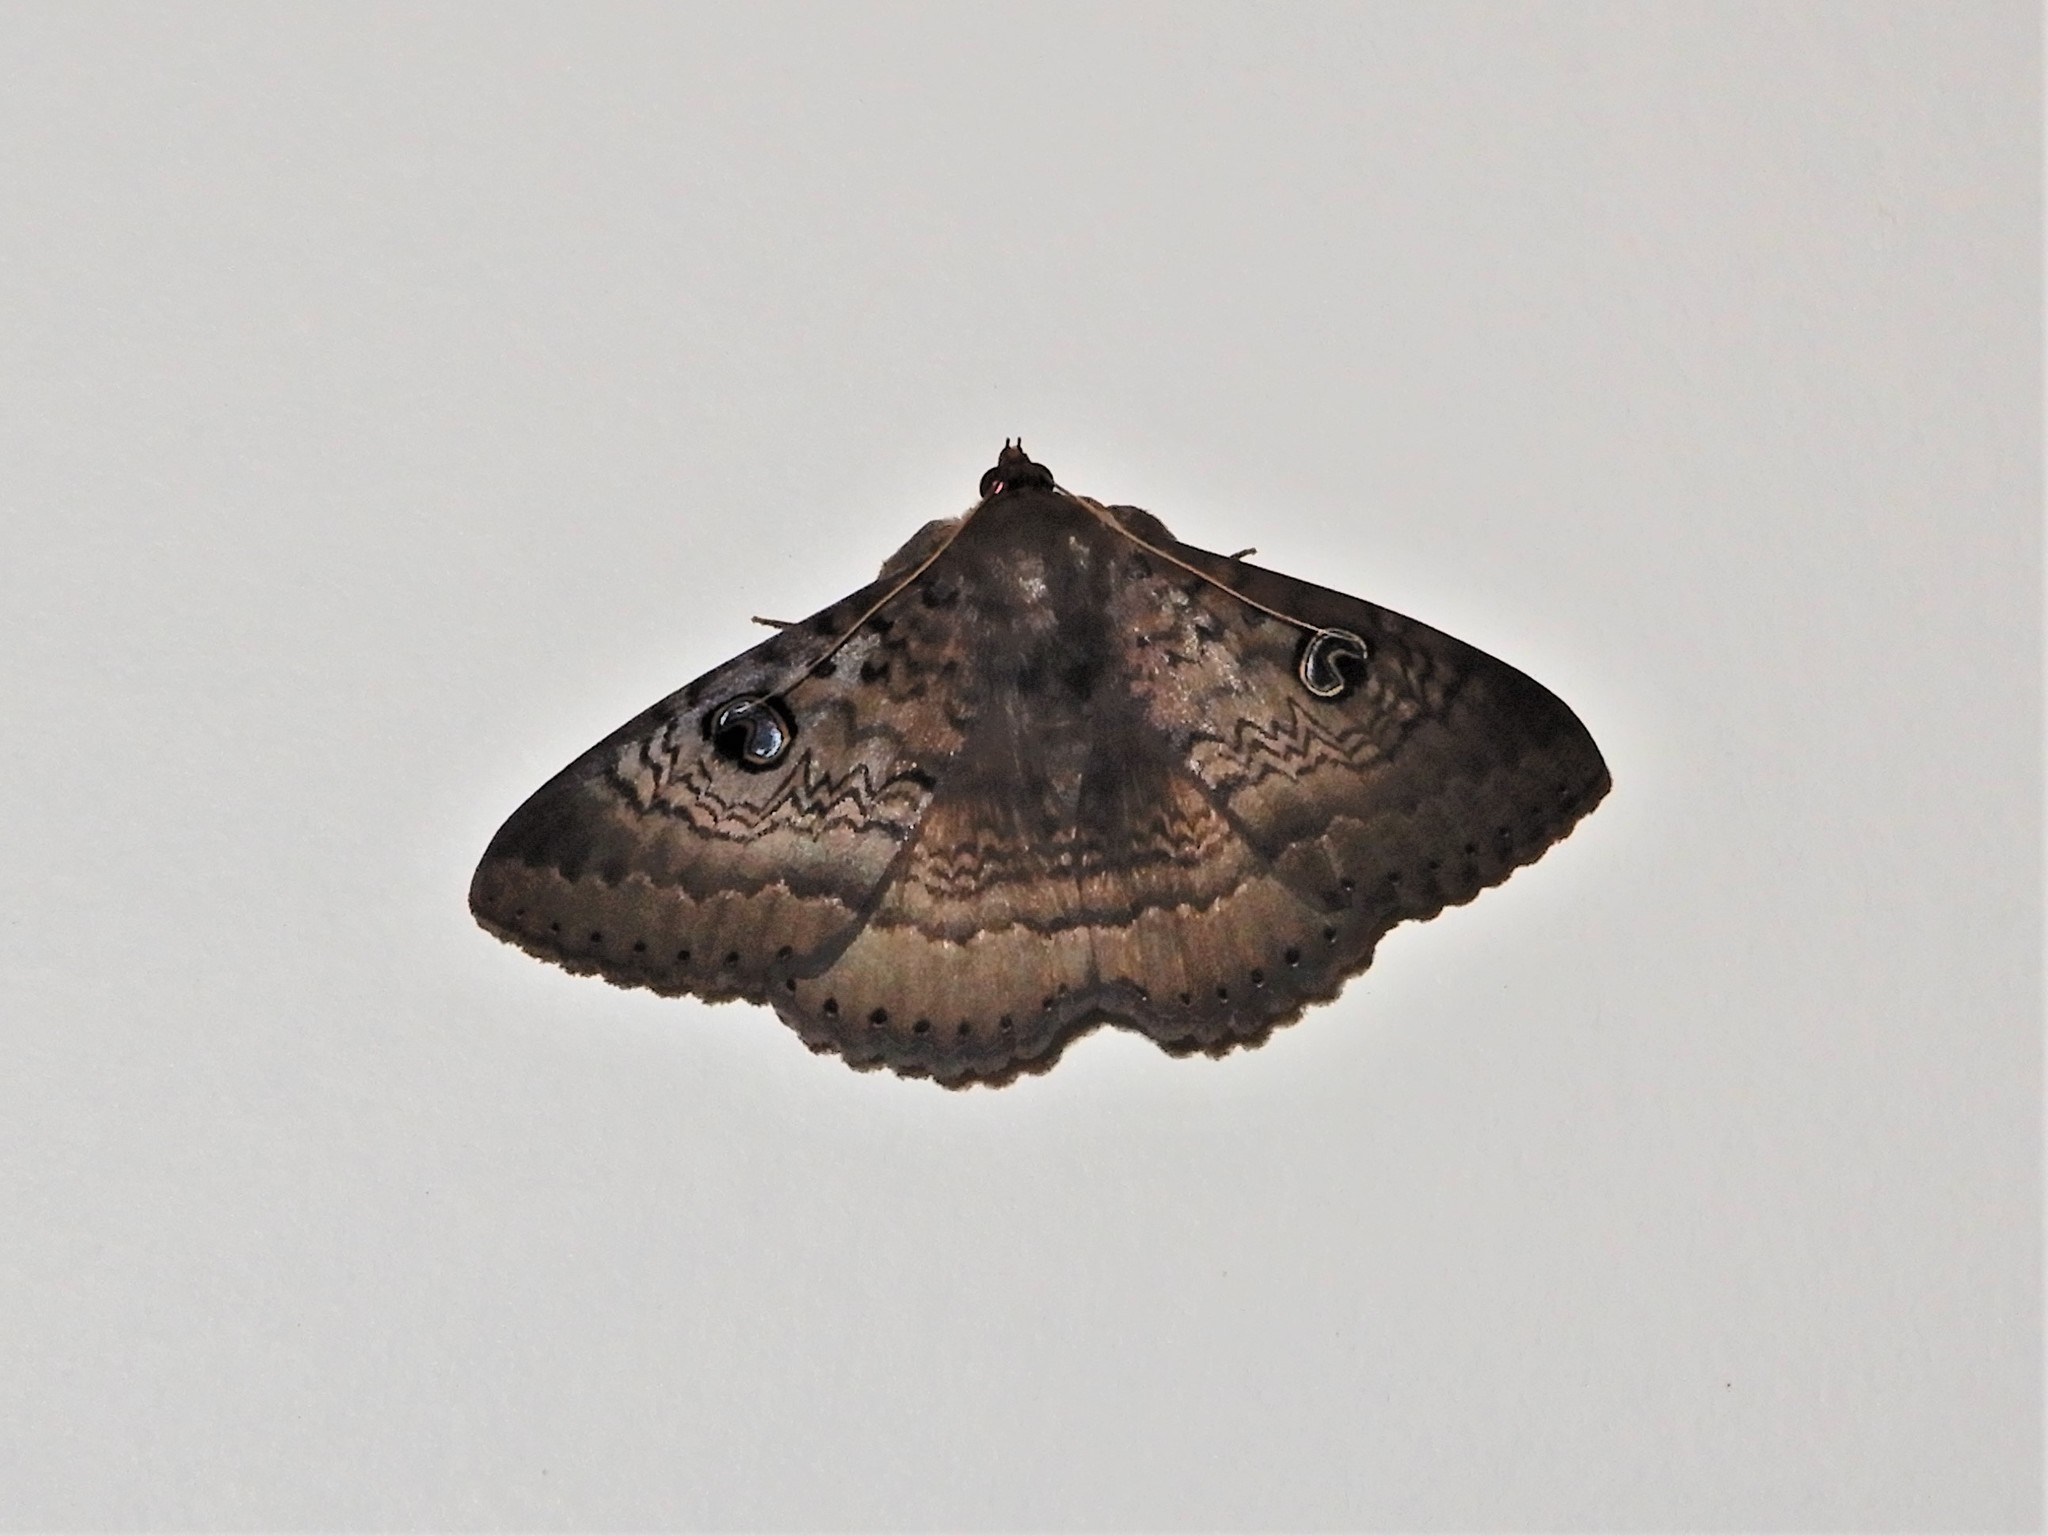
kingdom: Animalia
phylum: Arthropoda
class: Insecta
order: Lepidoptera
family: Erebidae
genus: Dasypodia
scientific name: Dasypodia cymatodes
